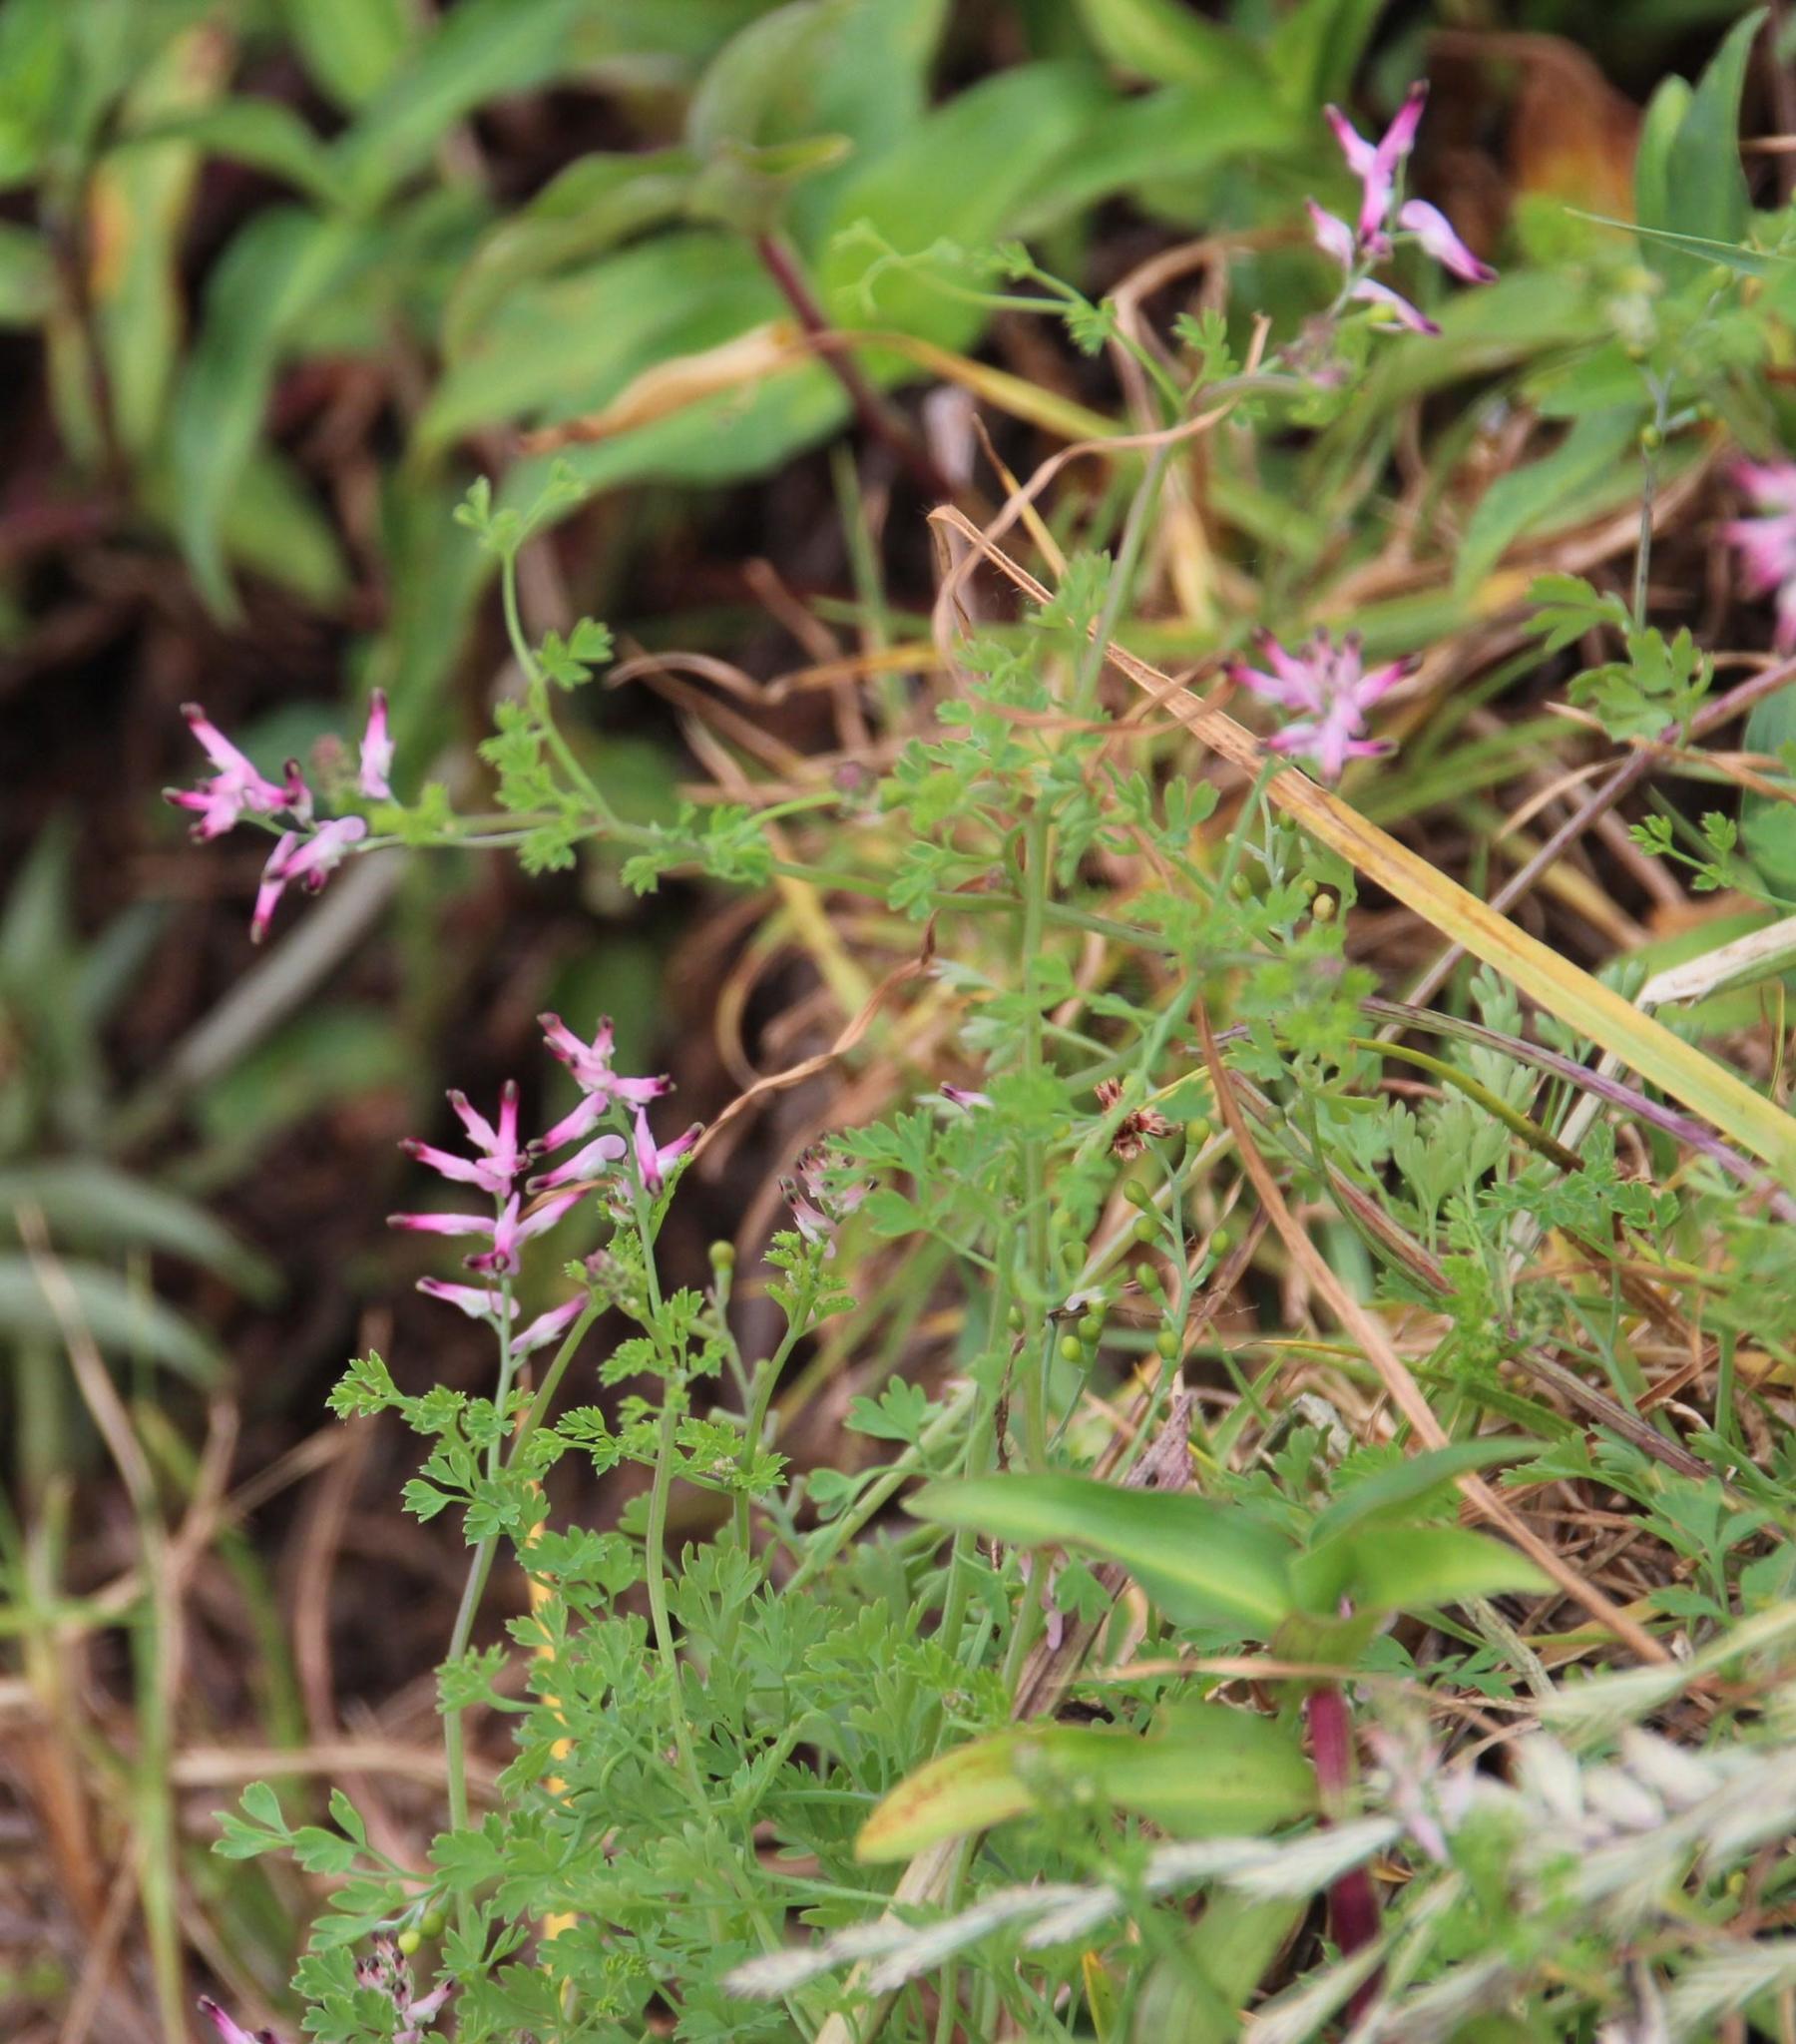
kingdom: Plantae
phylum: Tracheophyta
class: Magnoliopsida
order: Ranunculales
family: Papaveraceae
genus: Fumaria
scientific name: Fumaria muralis
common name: Common ramping-fumitory
